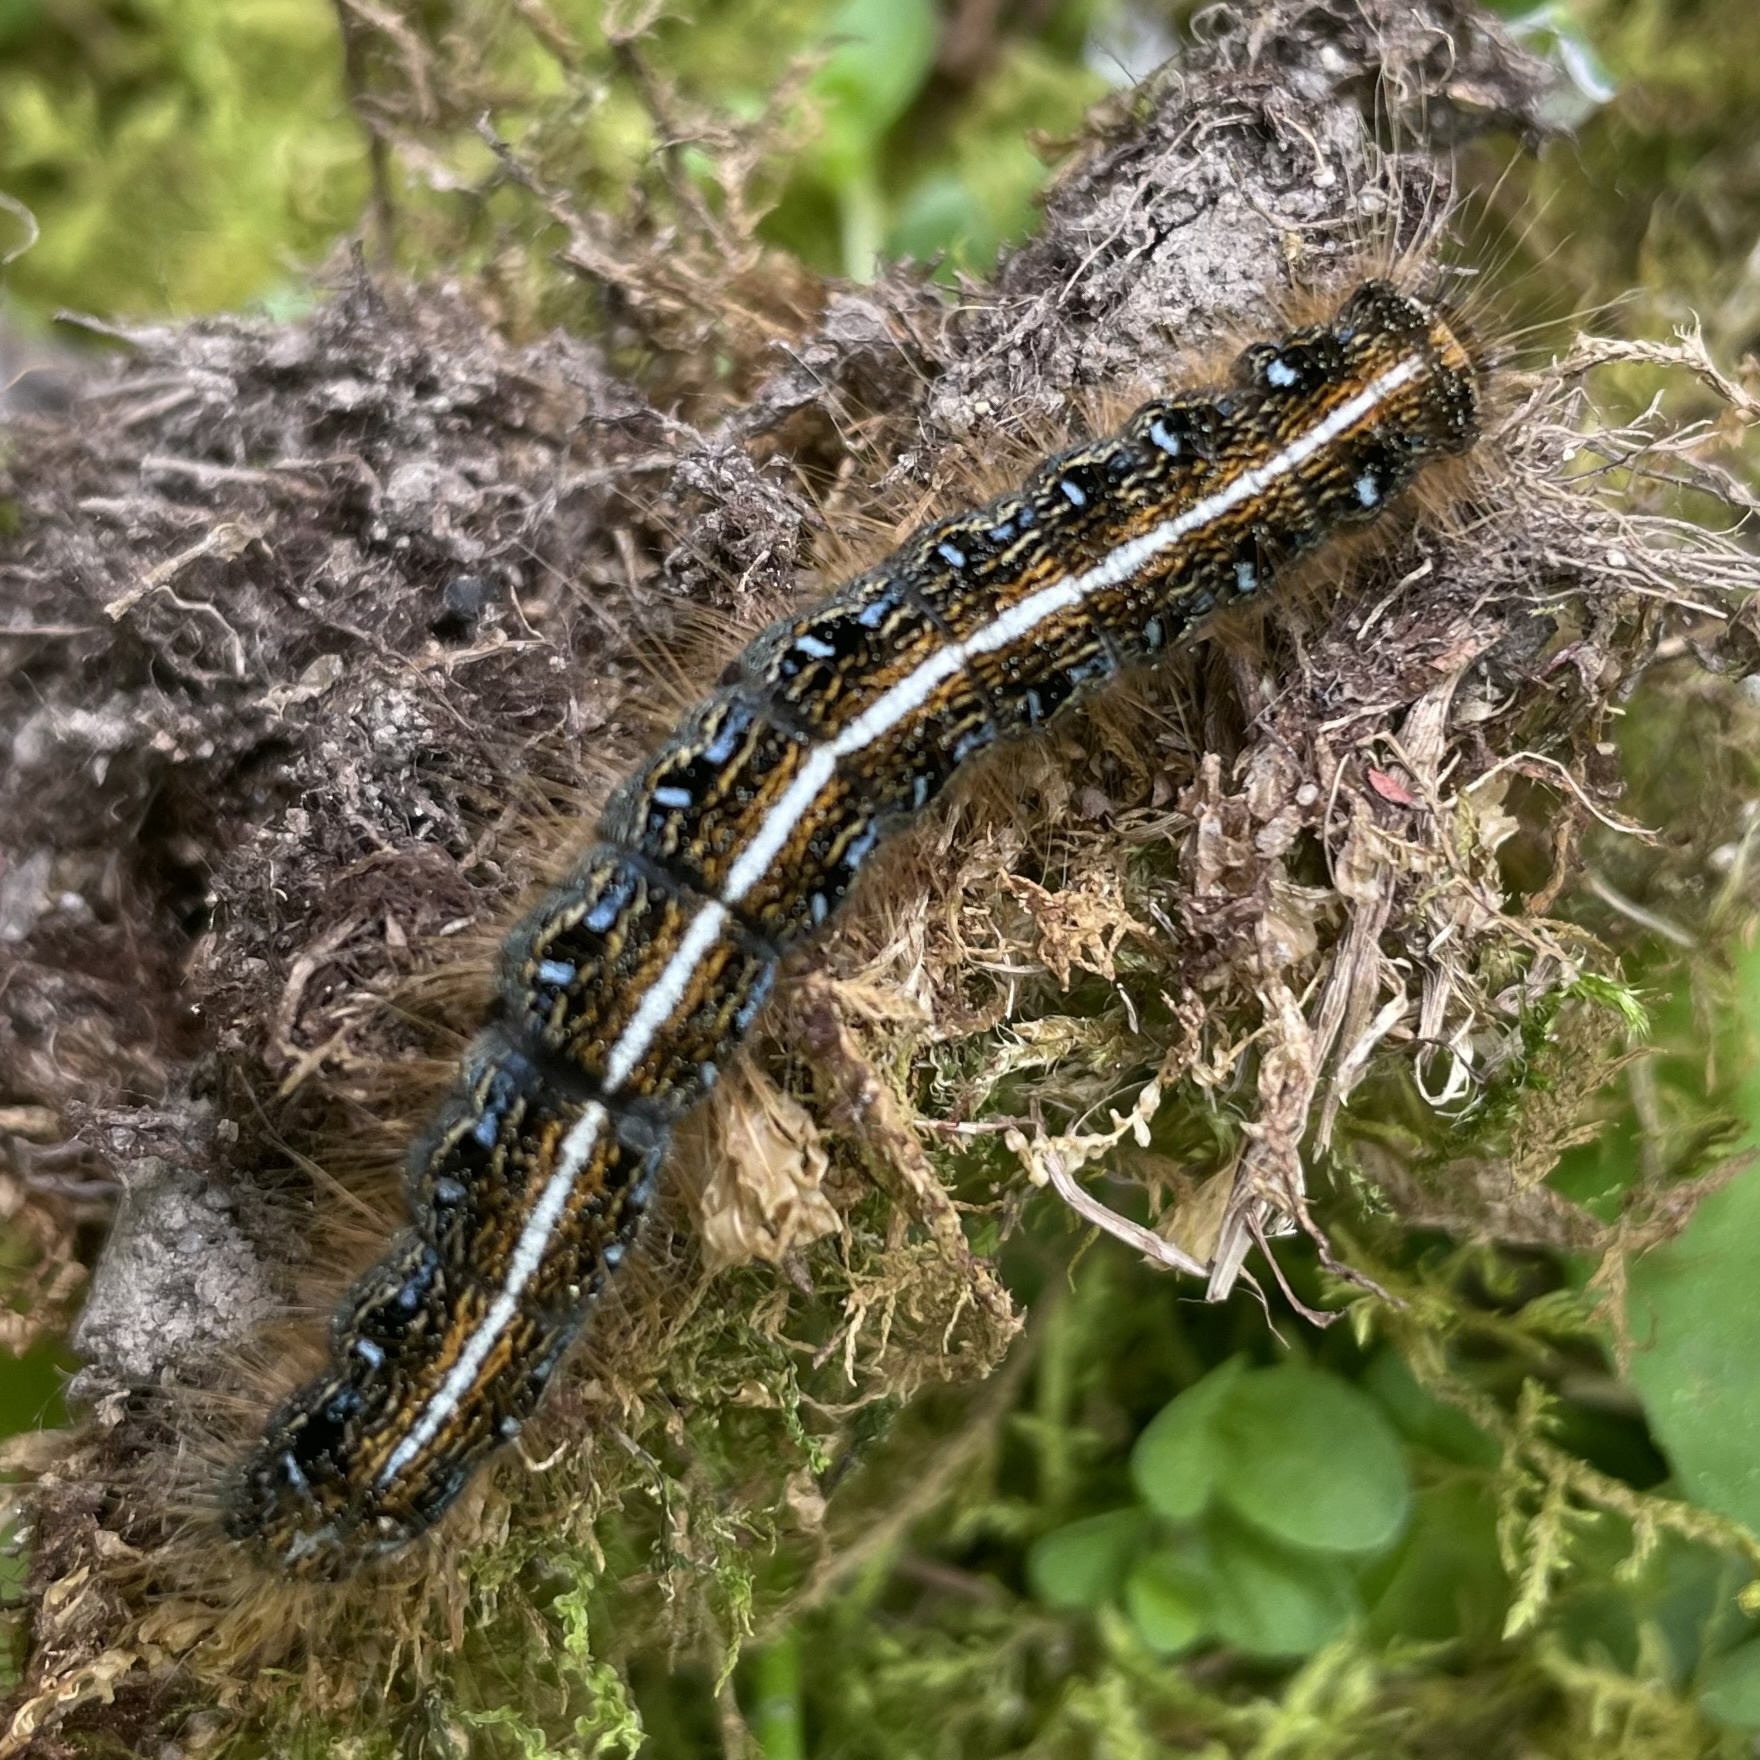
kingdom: Animalia
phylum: Arthropoda
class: Insecta
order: Lepidoptera
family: Lasiocampidae
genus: Malacosoma
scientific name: Malacosoma americana
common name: Eastern tent caterpillar moth
